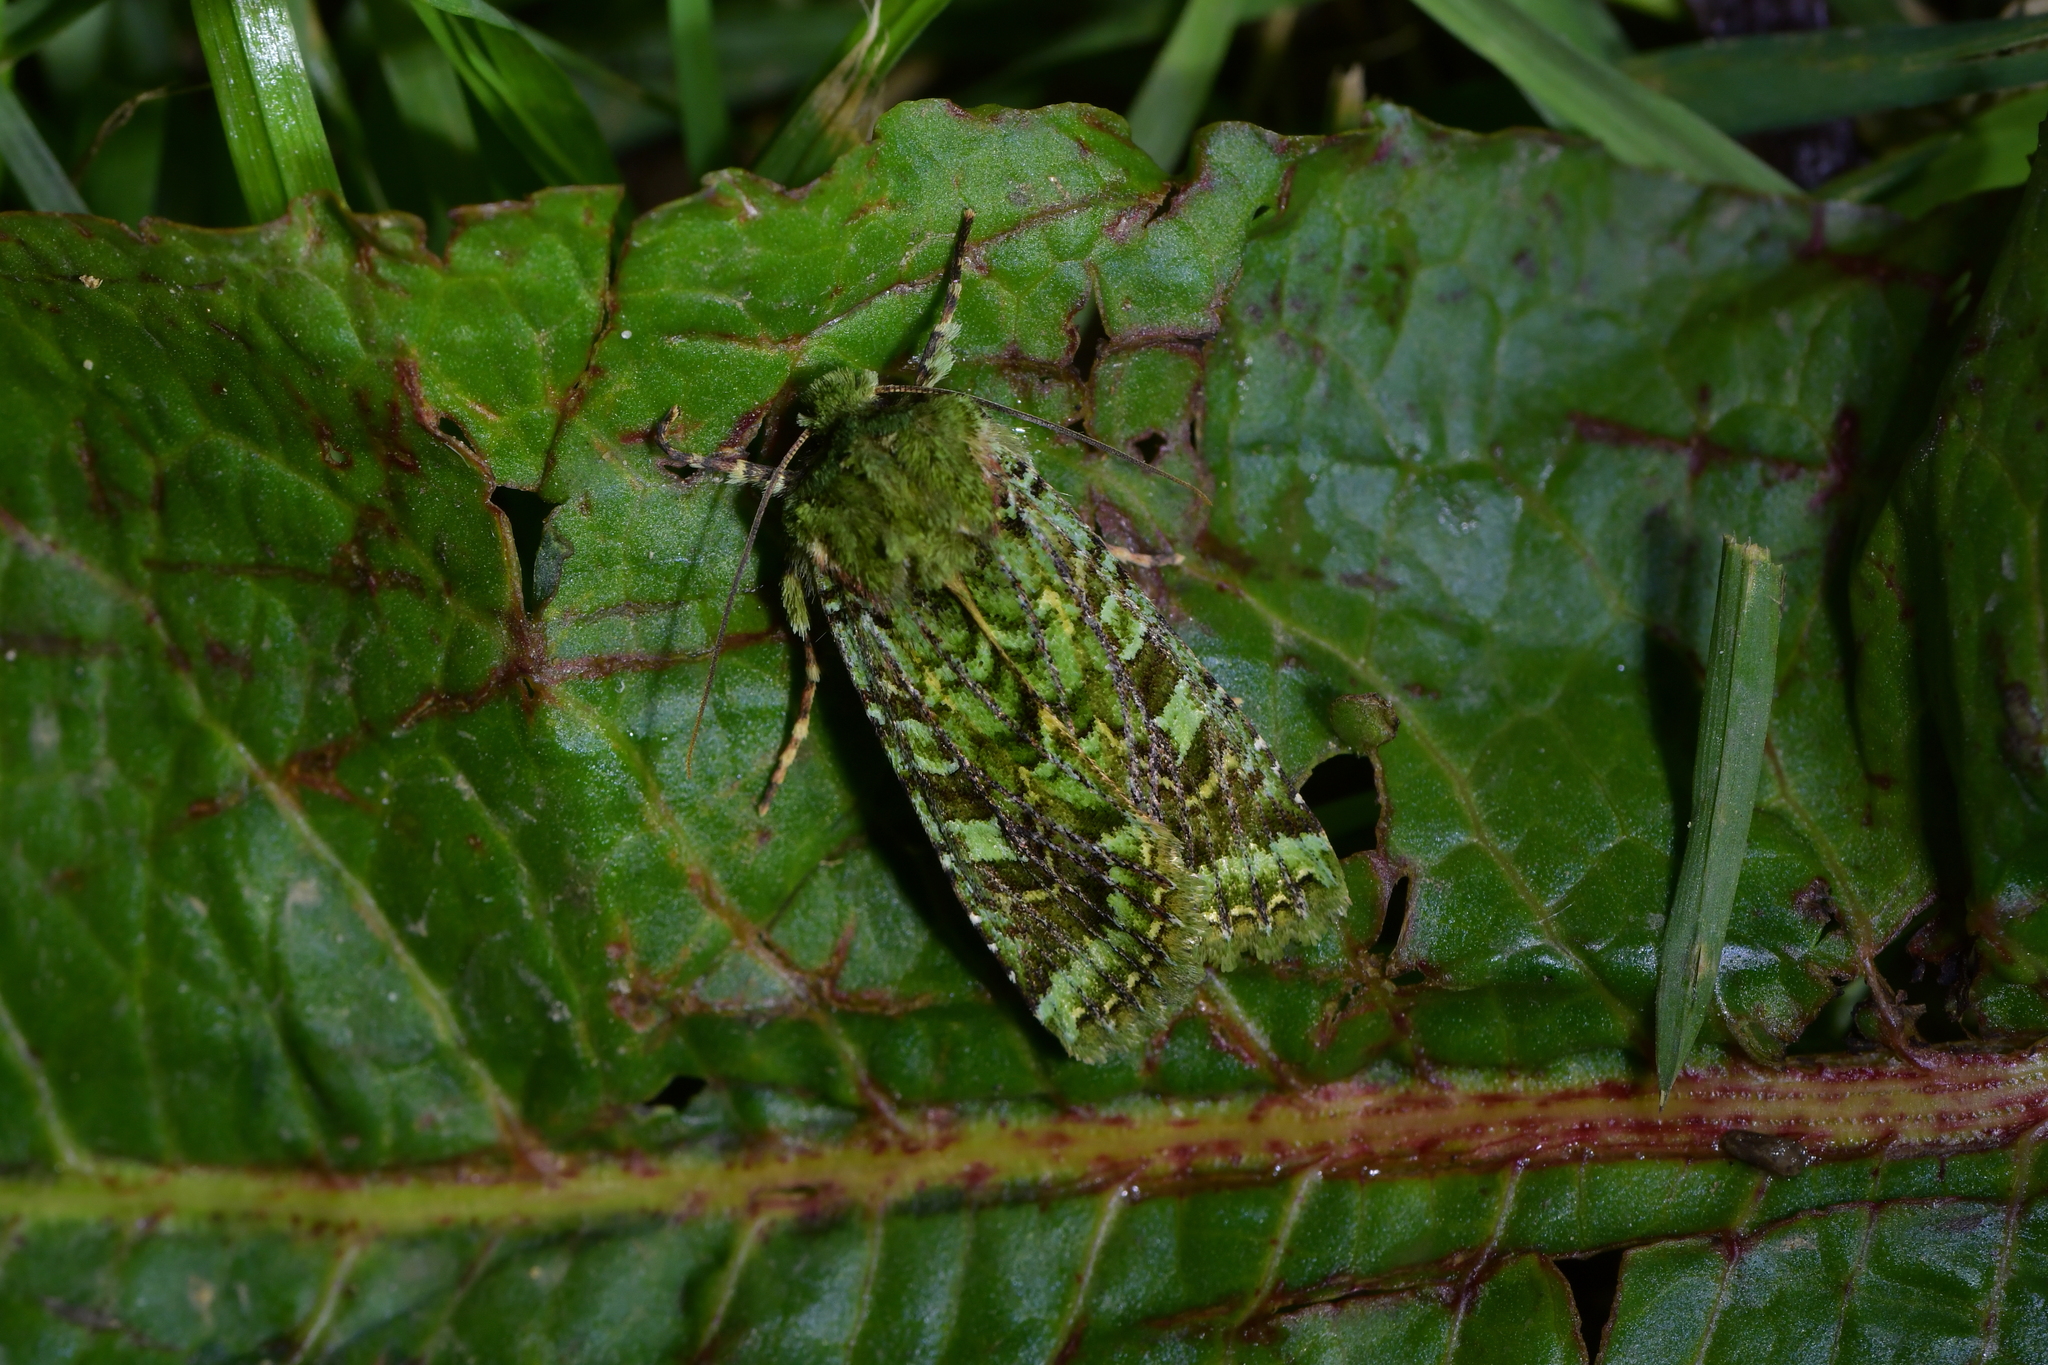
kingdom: Animalia
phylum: Arthropoda
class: Insecta
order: Lepidoptera
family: Noctuidae
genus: Feredayia
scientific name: Feredayia grammosa
